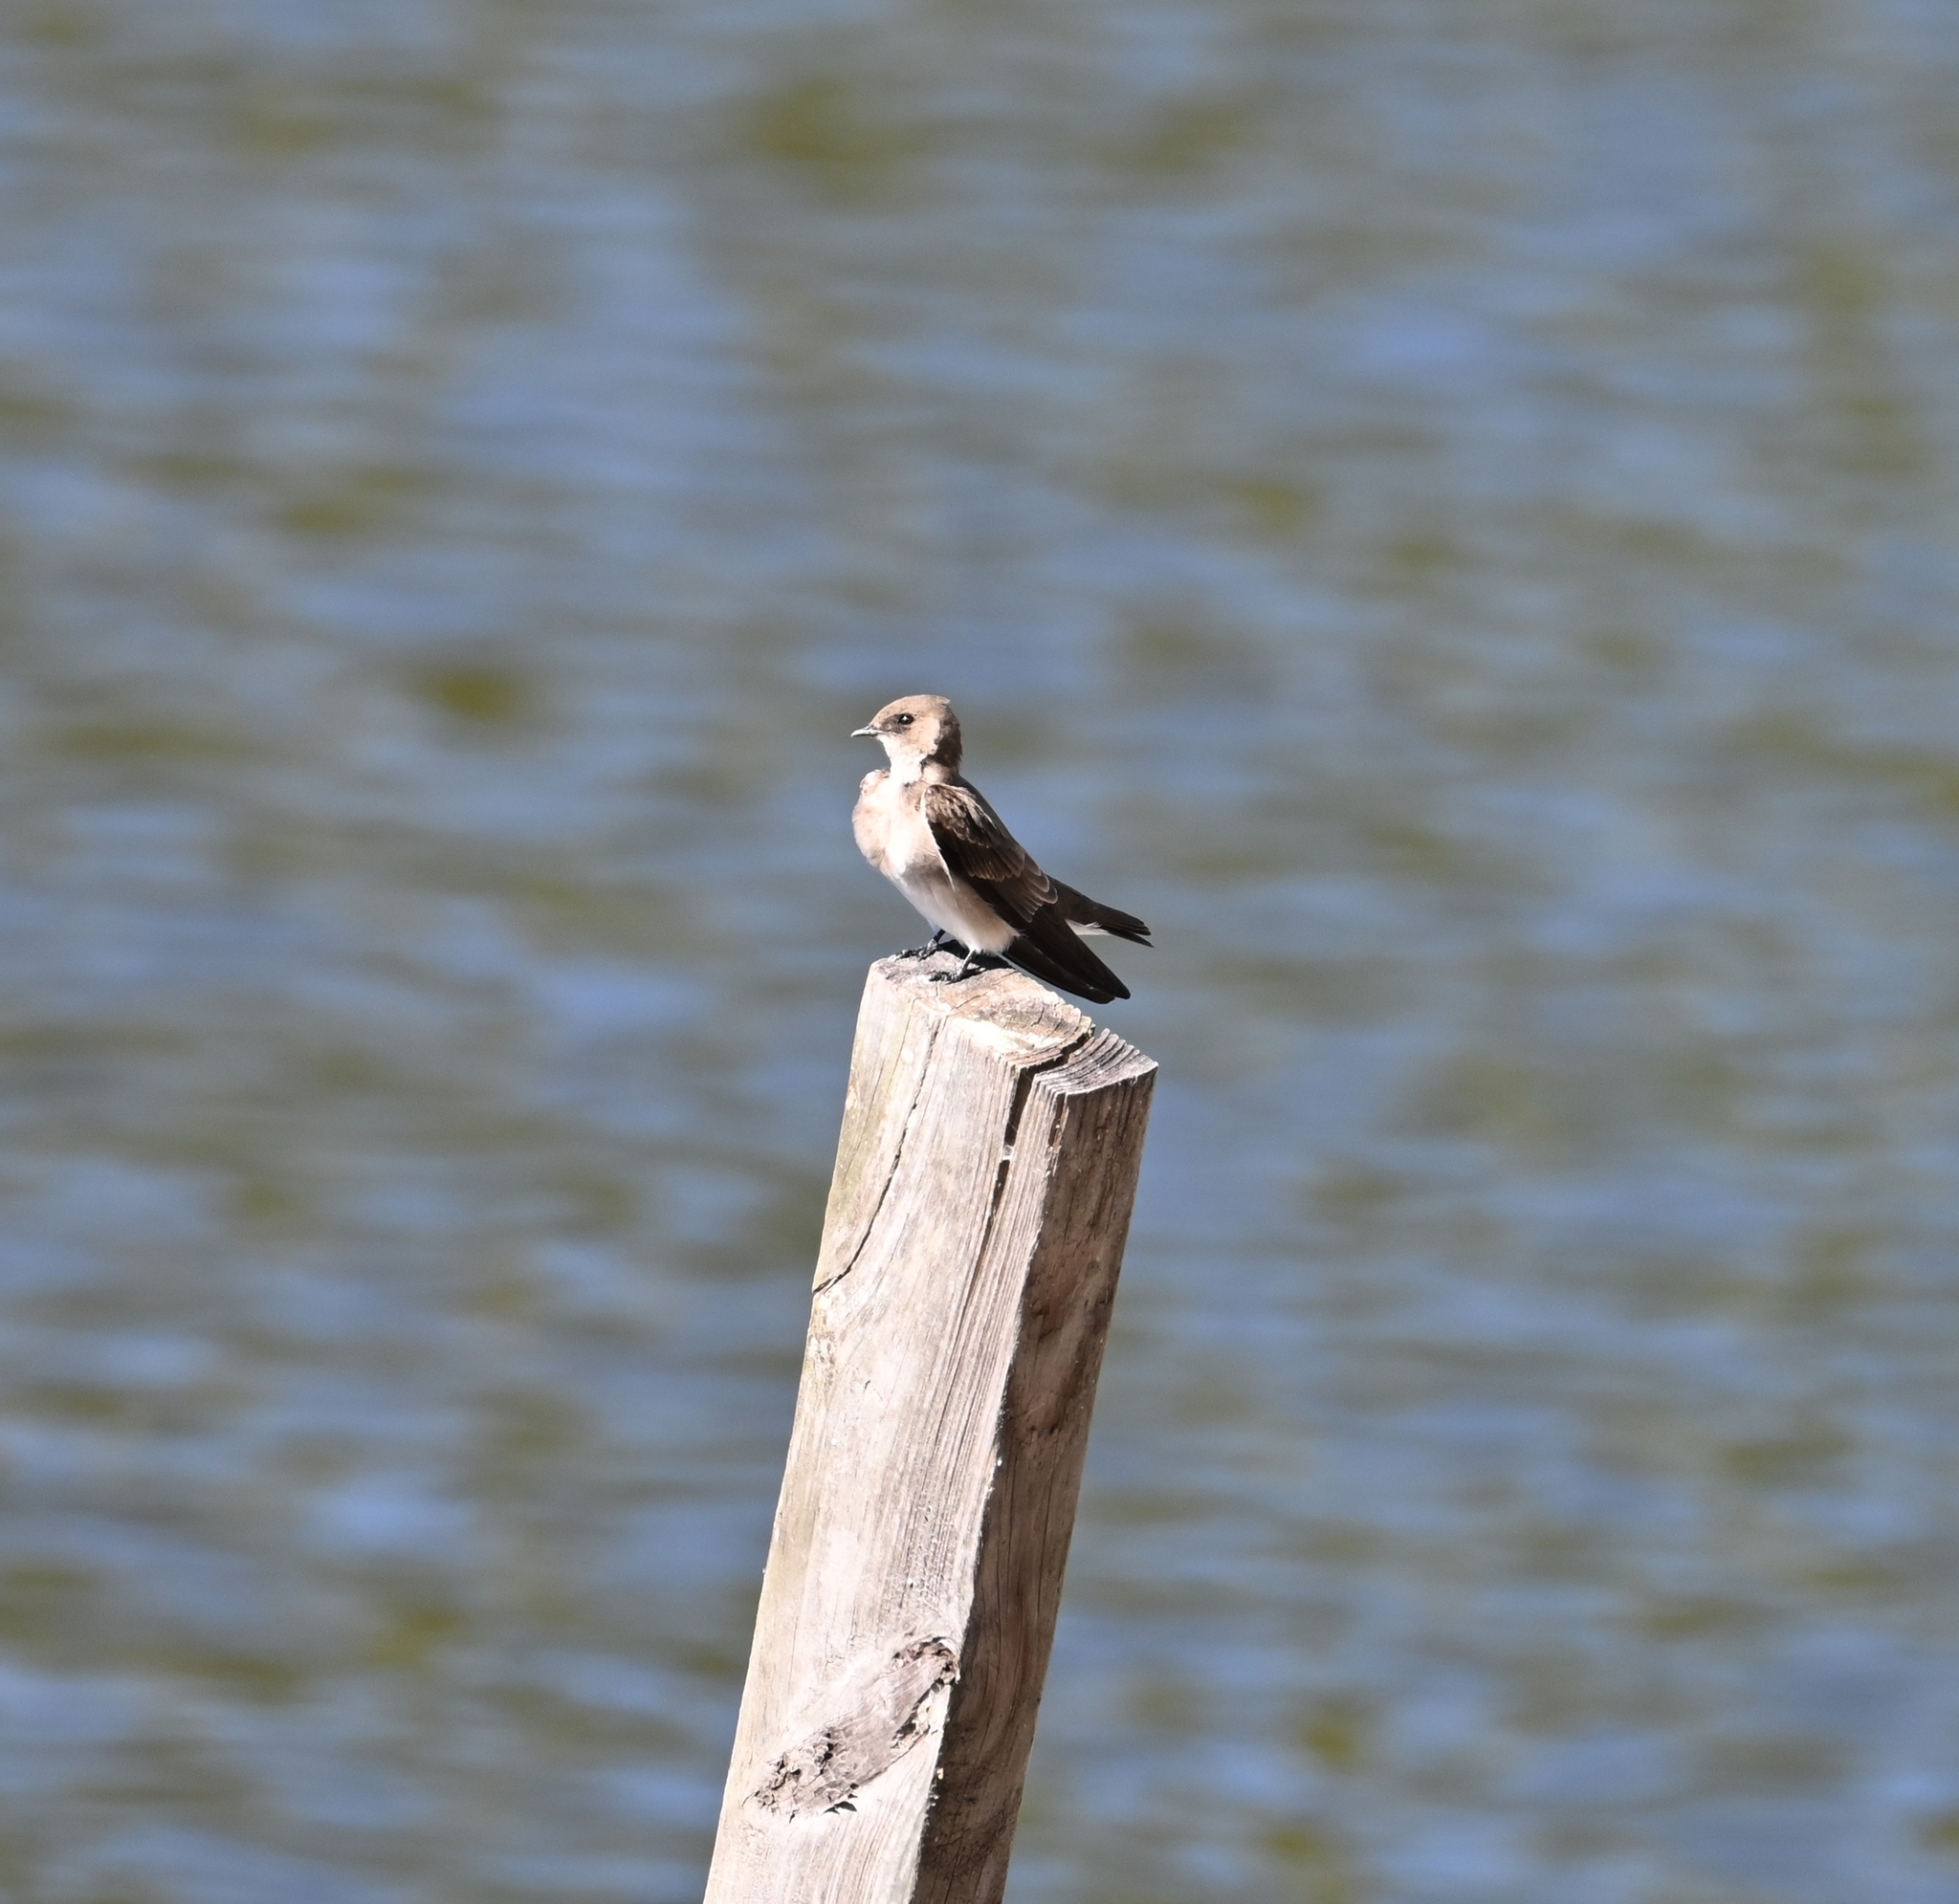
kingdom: Animalia
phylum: Chordata
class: Aves
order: Passeriformes
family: Hirundinidae
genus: Stelgidopteryx
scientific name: Stelgidopteryx serripennis
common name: Northern rough-winged swallow
